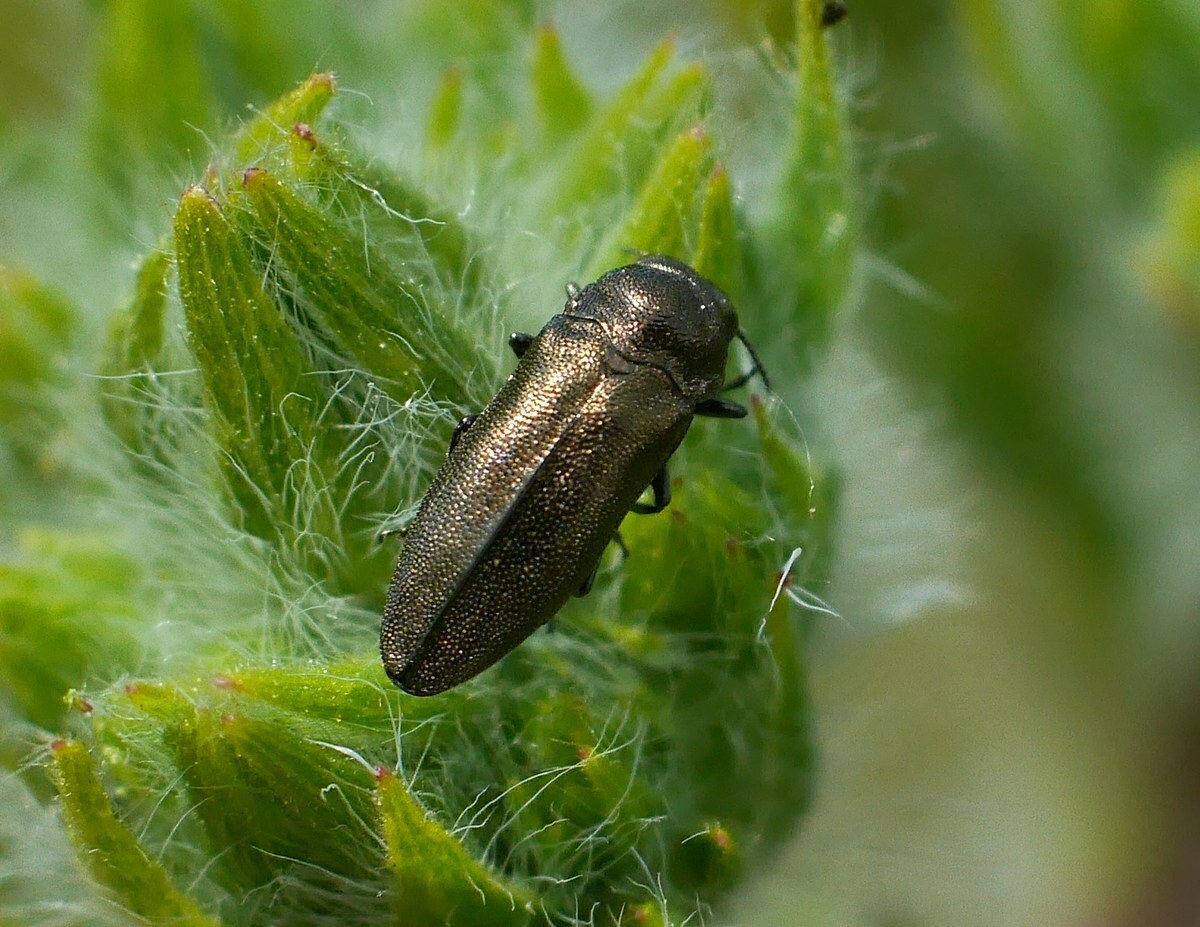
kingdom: Animalia
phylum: Arthropoda
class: Insecta
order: Coleoptera
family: Buprestidae
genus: Coraebus
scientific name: Coraebus elatus
